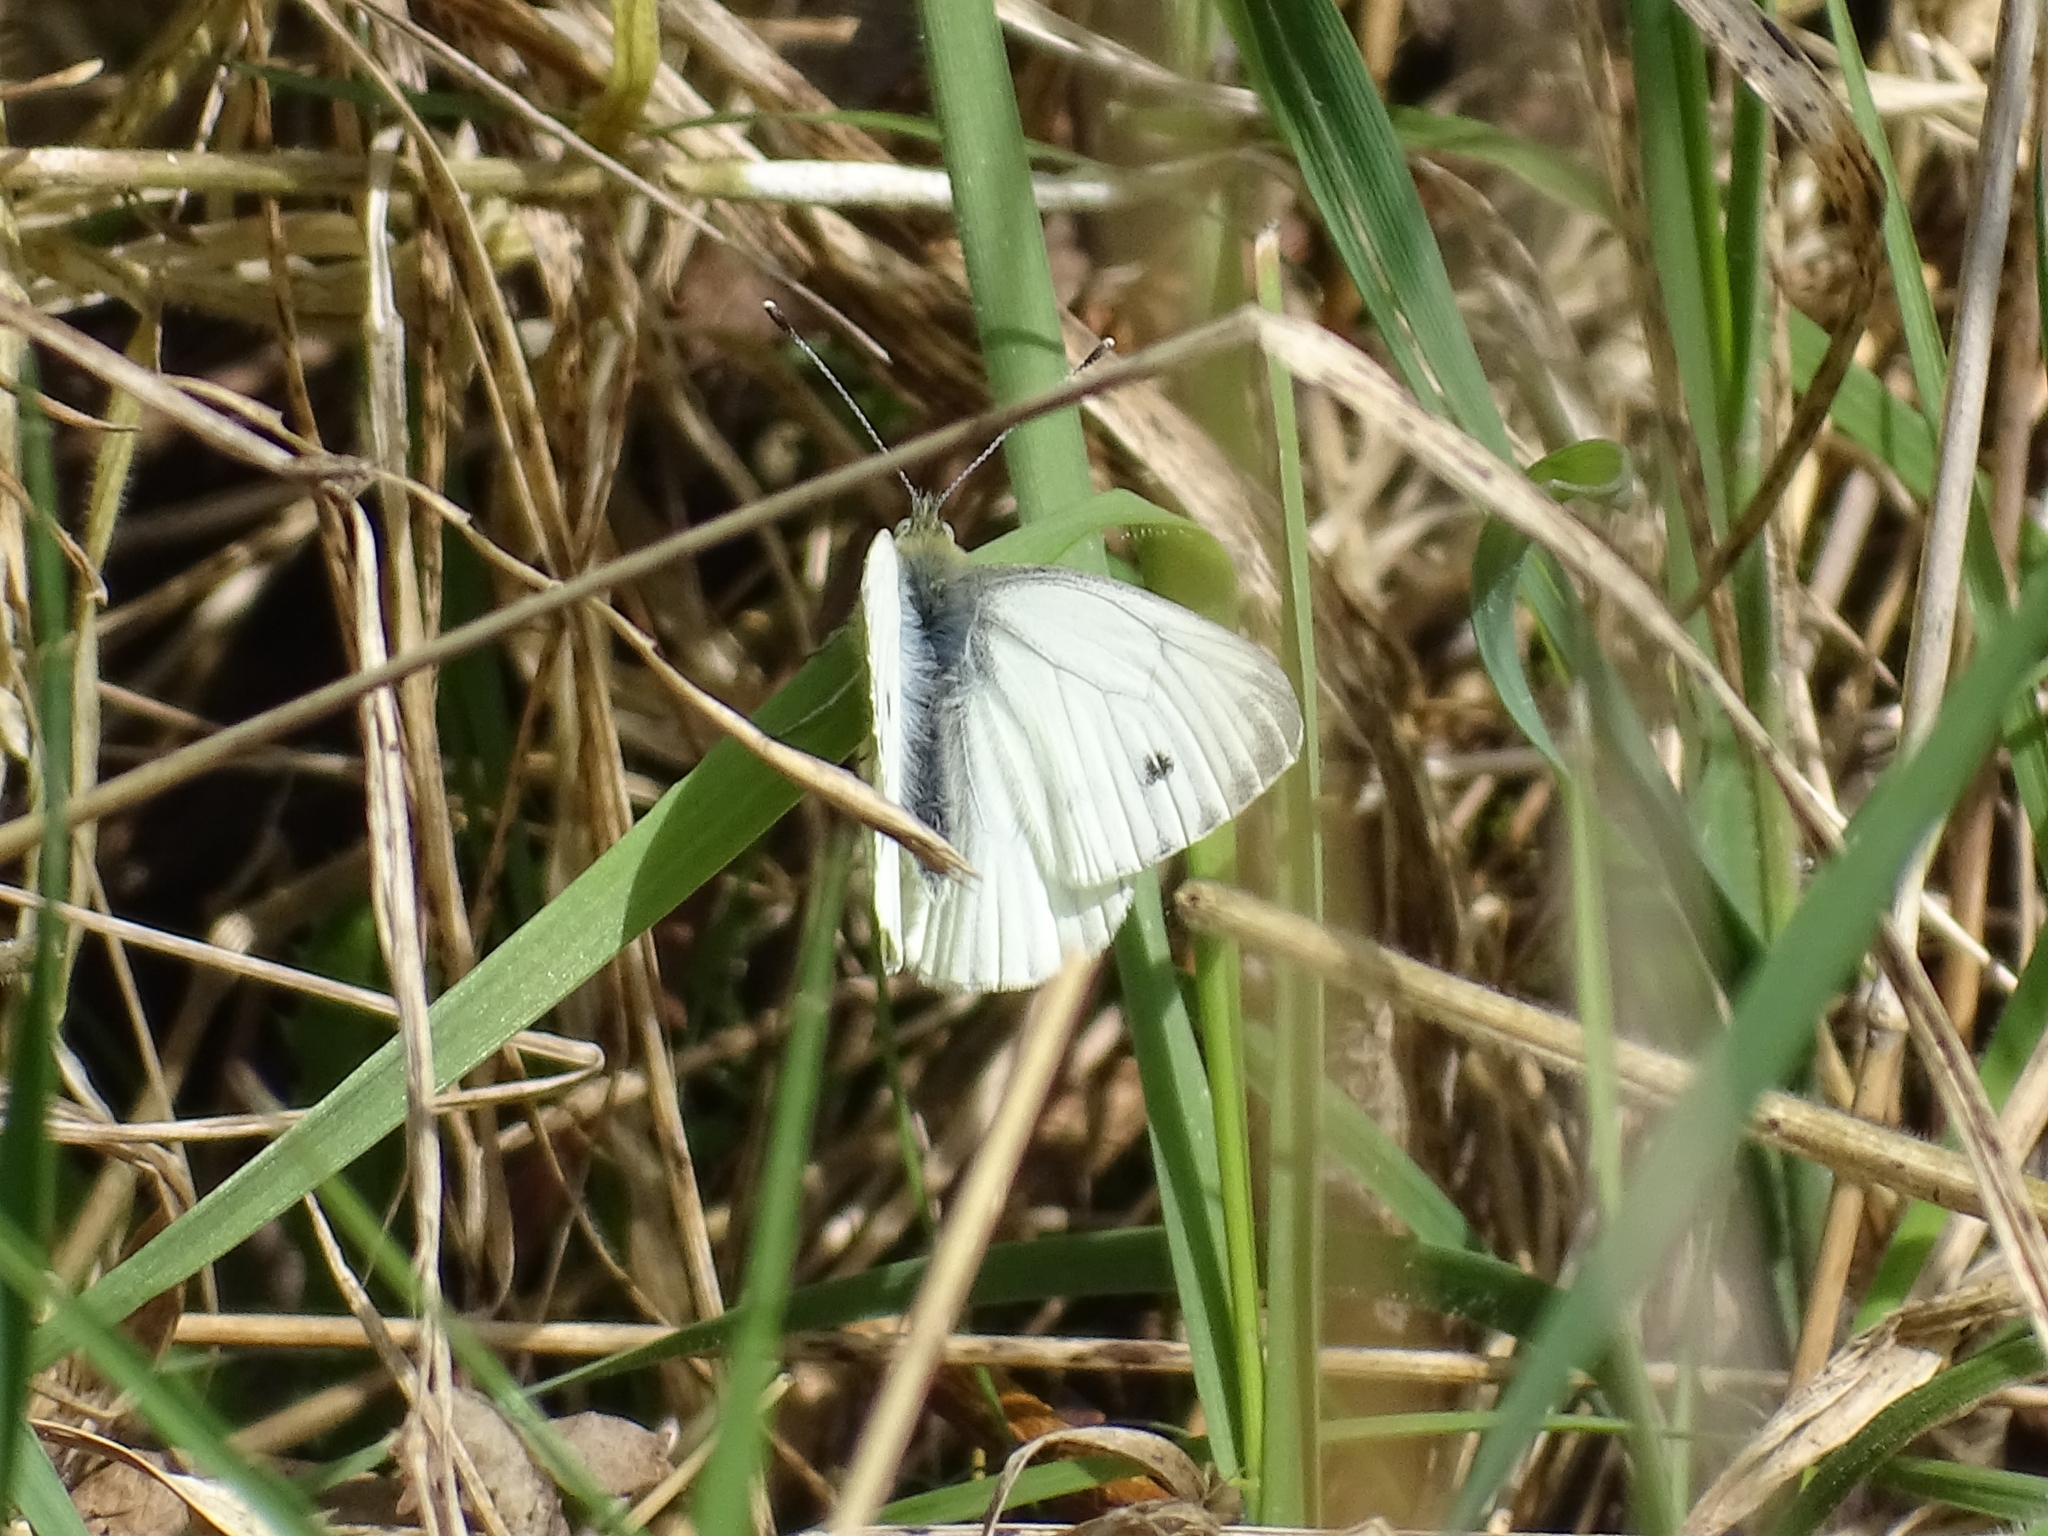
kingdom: Animalia
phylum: Arthropoda
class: Insecta
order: Lepidoptera
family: Pieridae
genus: Pieris
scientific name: Pieris napi
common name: Green-veined white
